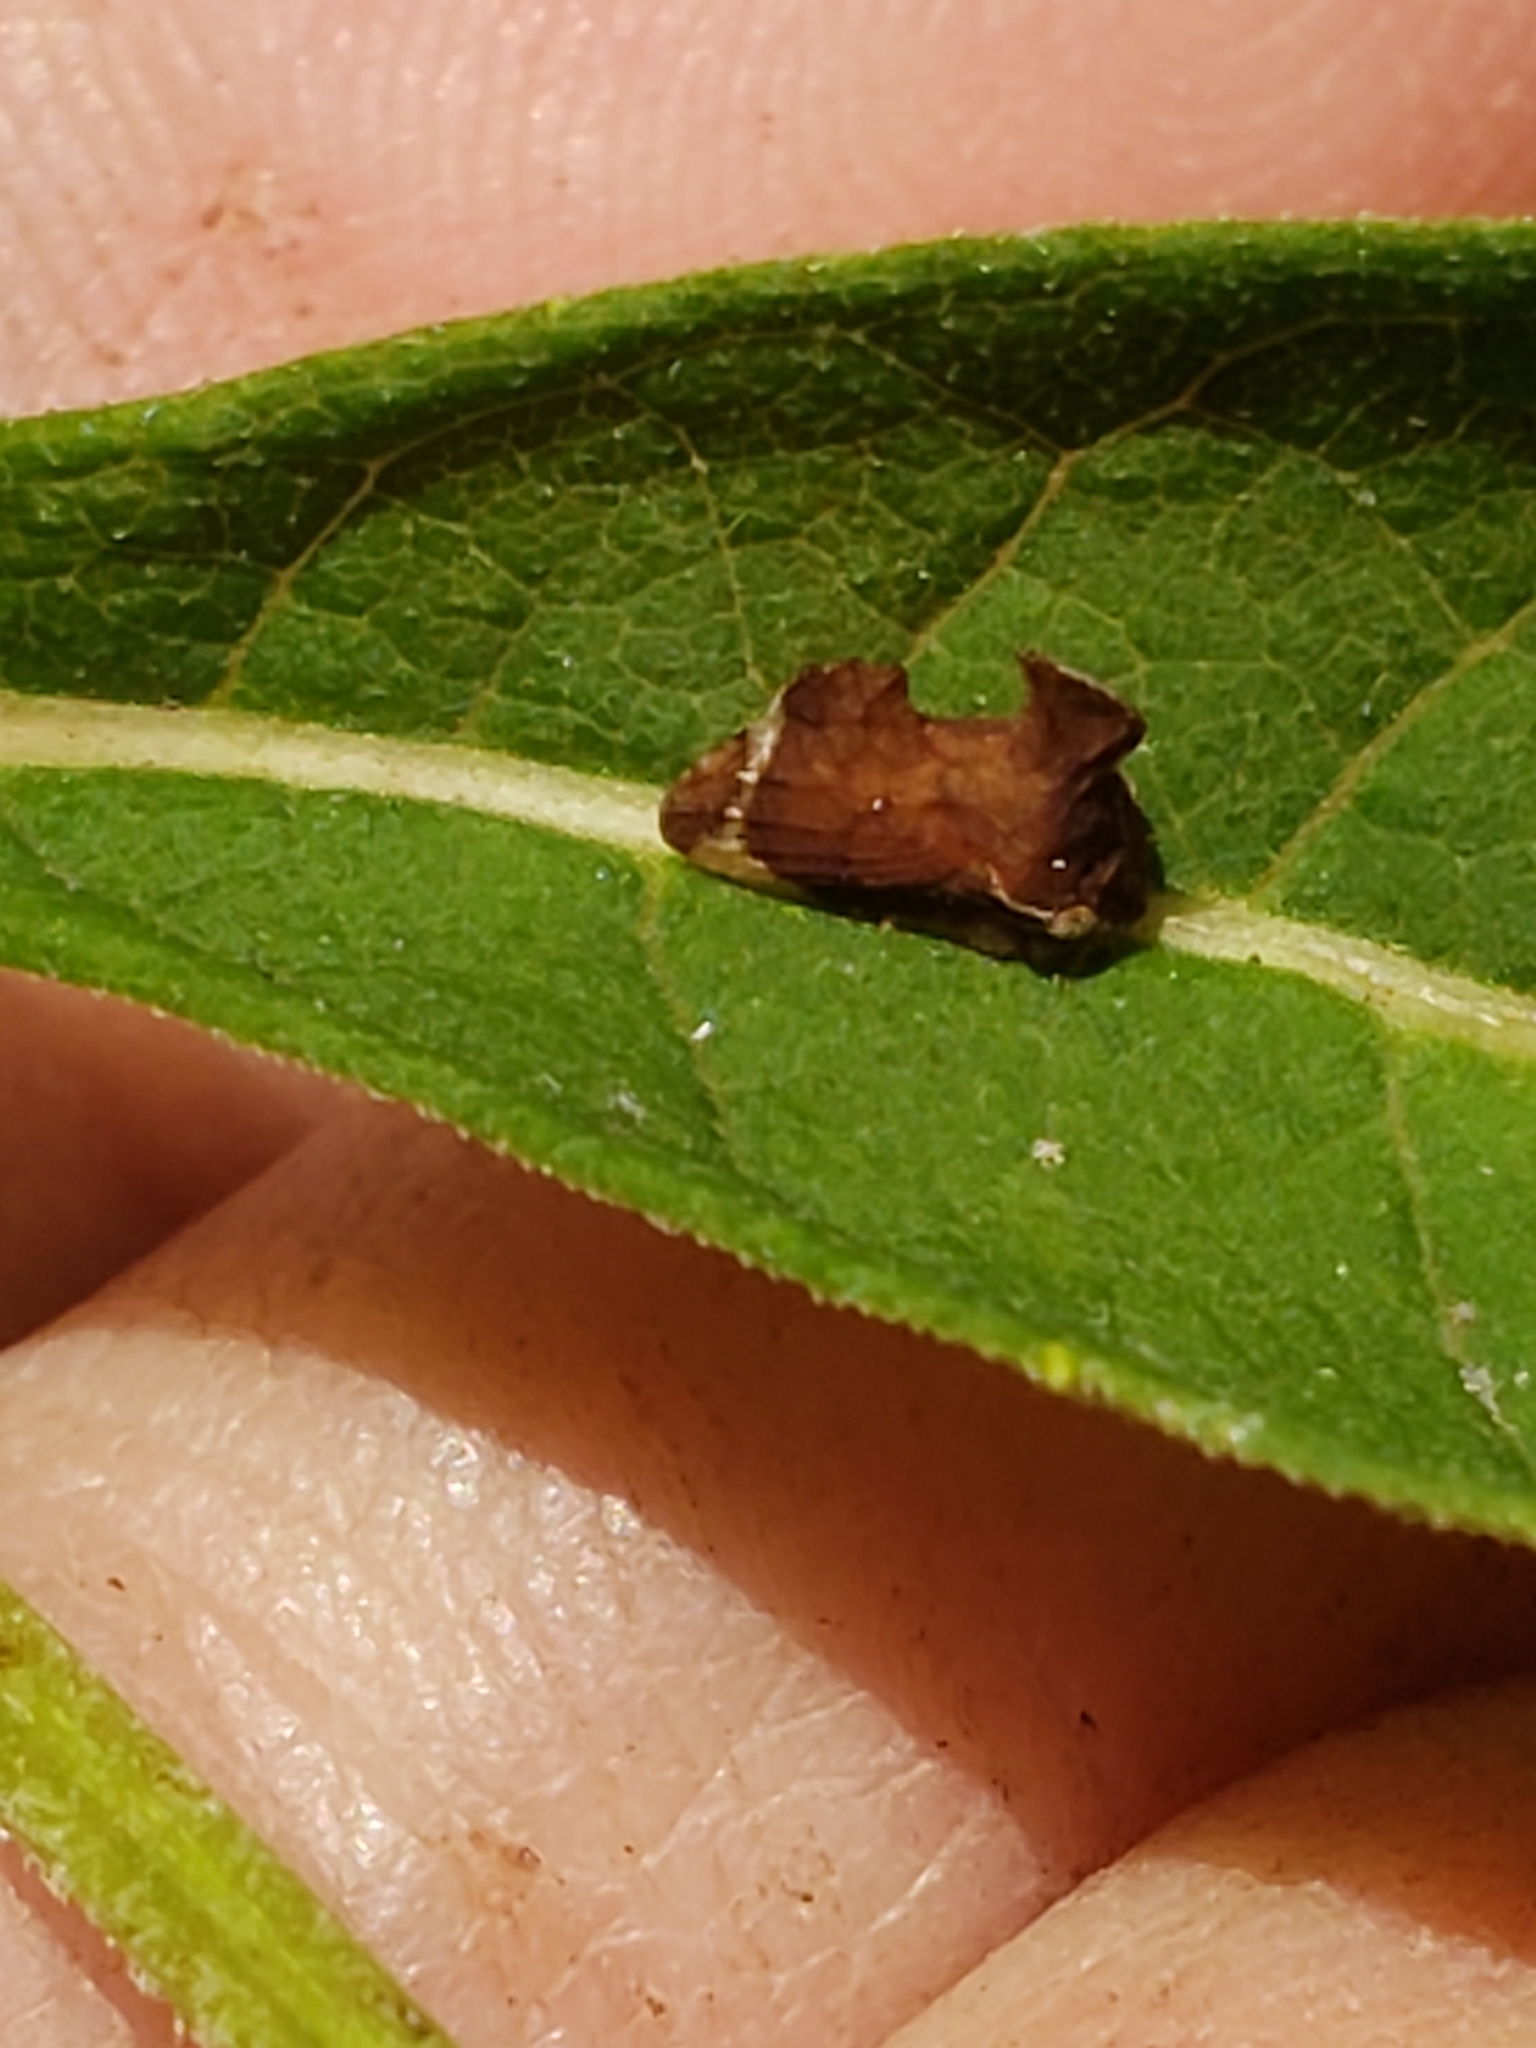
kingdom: Animalia
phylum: Arthropoda
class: Insecta
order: Hemiptera
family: Membracidae
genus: Entylia
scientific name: Entylia carinata
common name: Keeled treehopper
